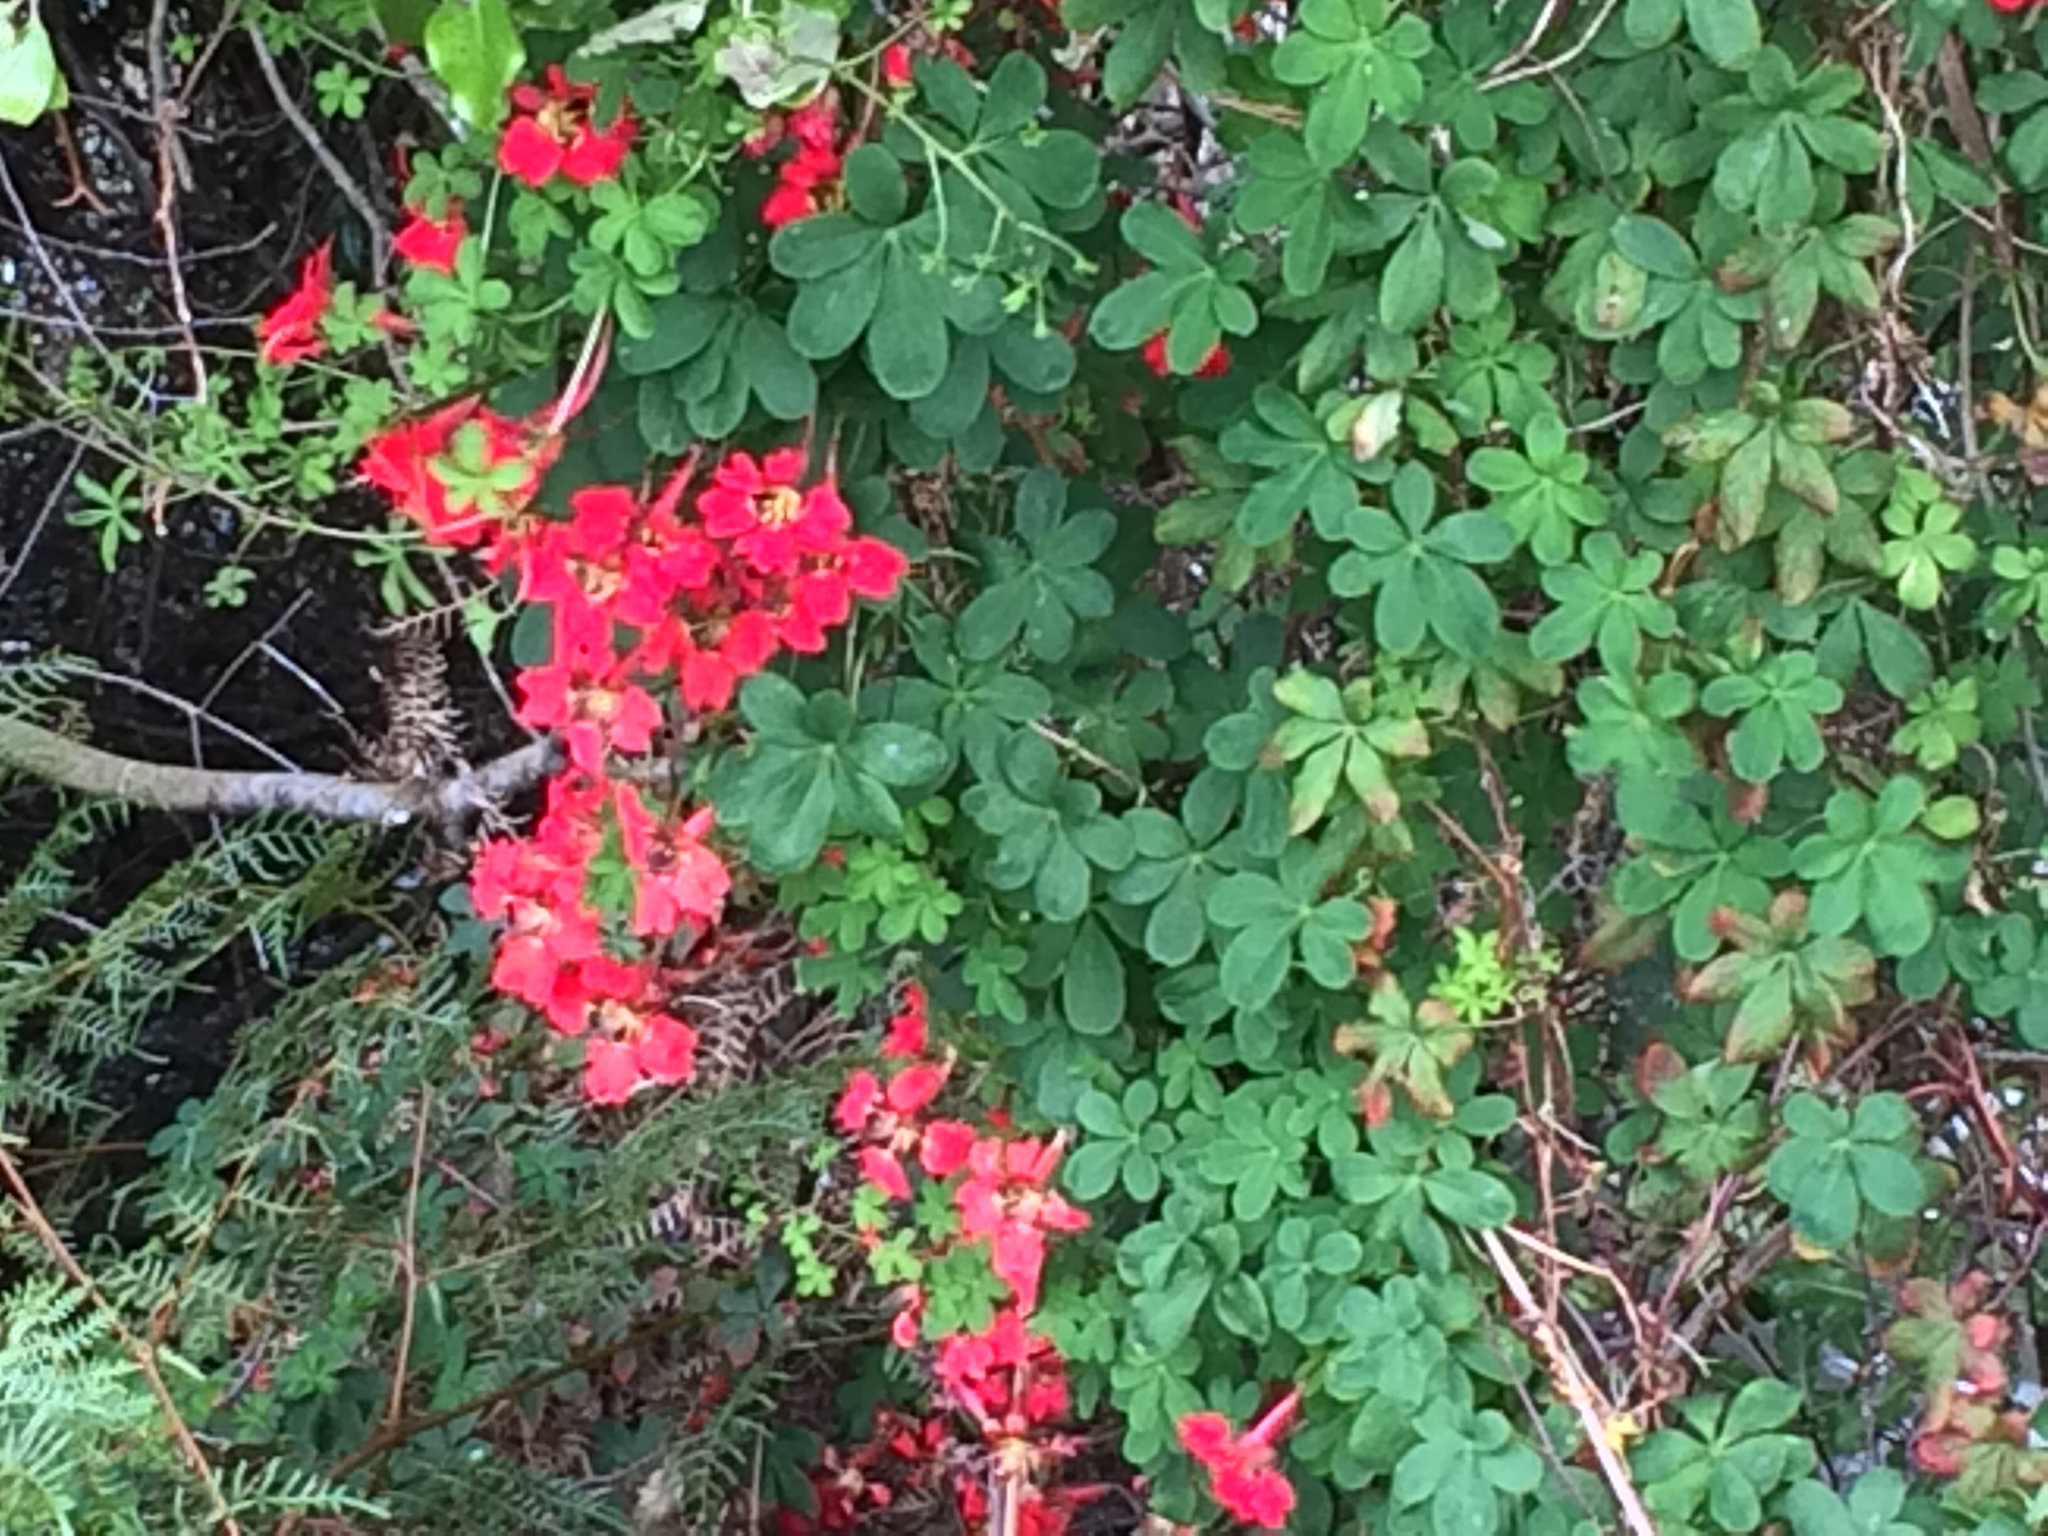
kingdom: Plantae
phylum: Tracheophyta
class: Magnoliopsida
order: Brassicales
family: Tropaeolaceae
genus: Tropaeolum
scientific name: Tropaeolum speciosum
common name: Flame nasturtium
